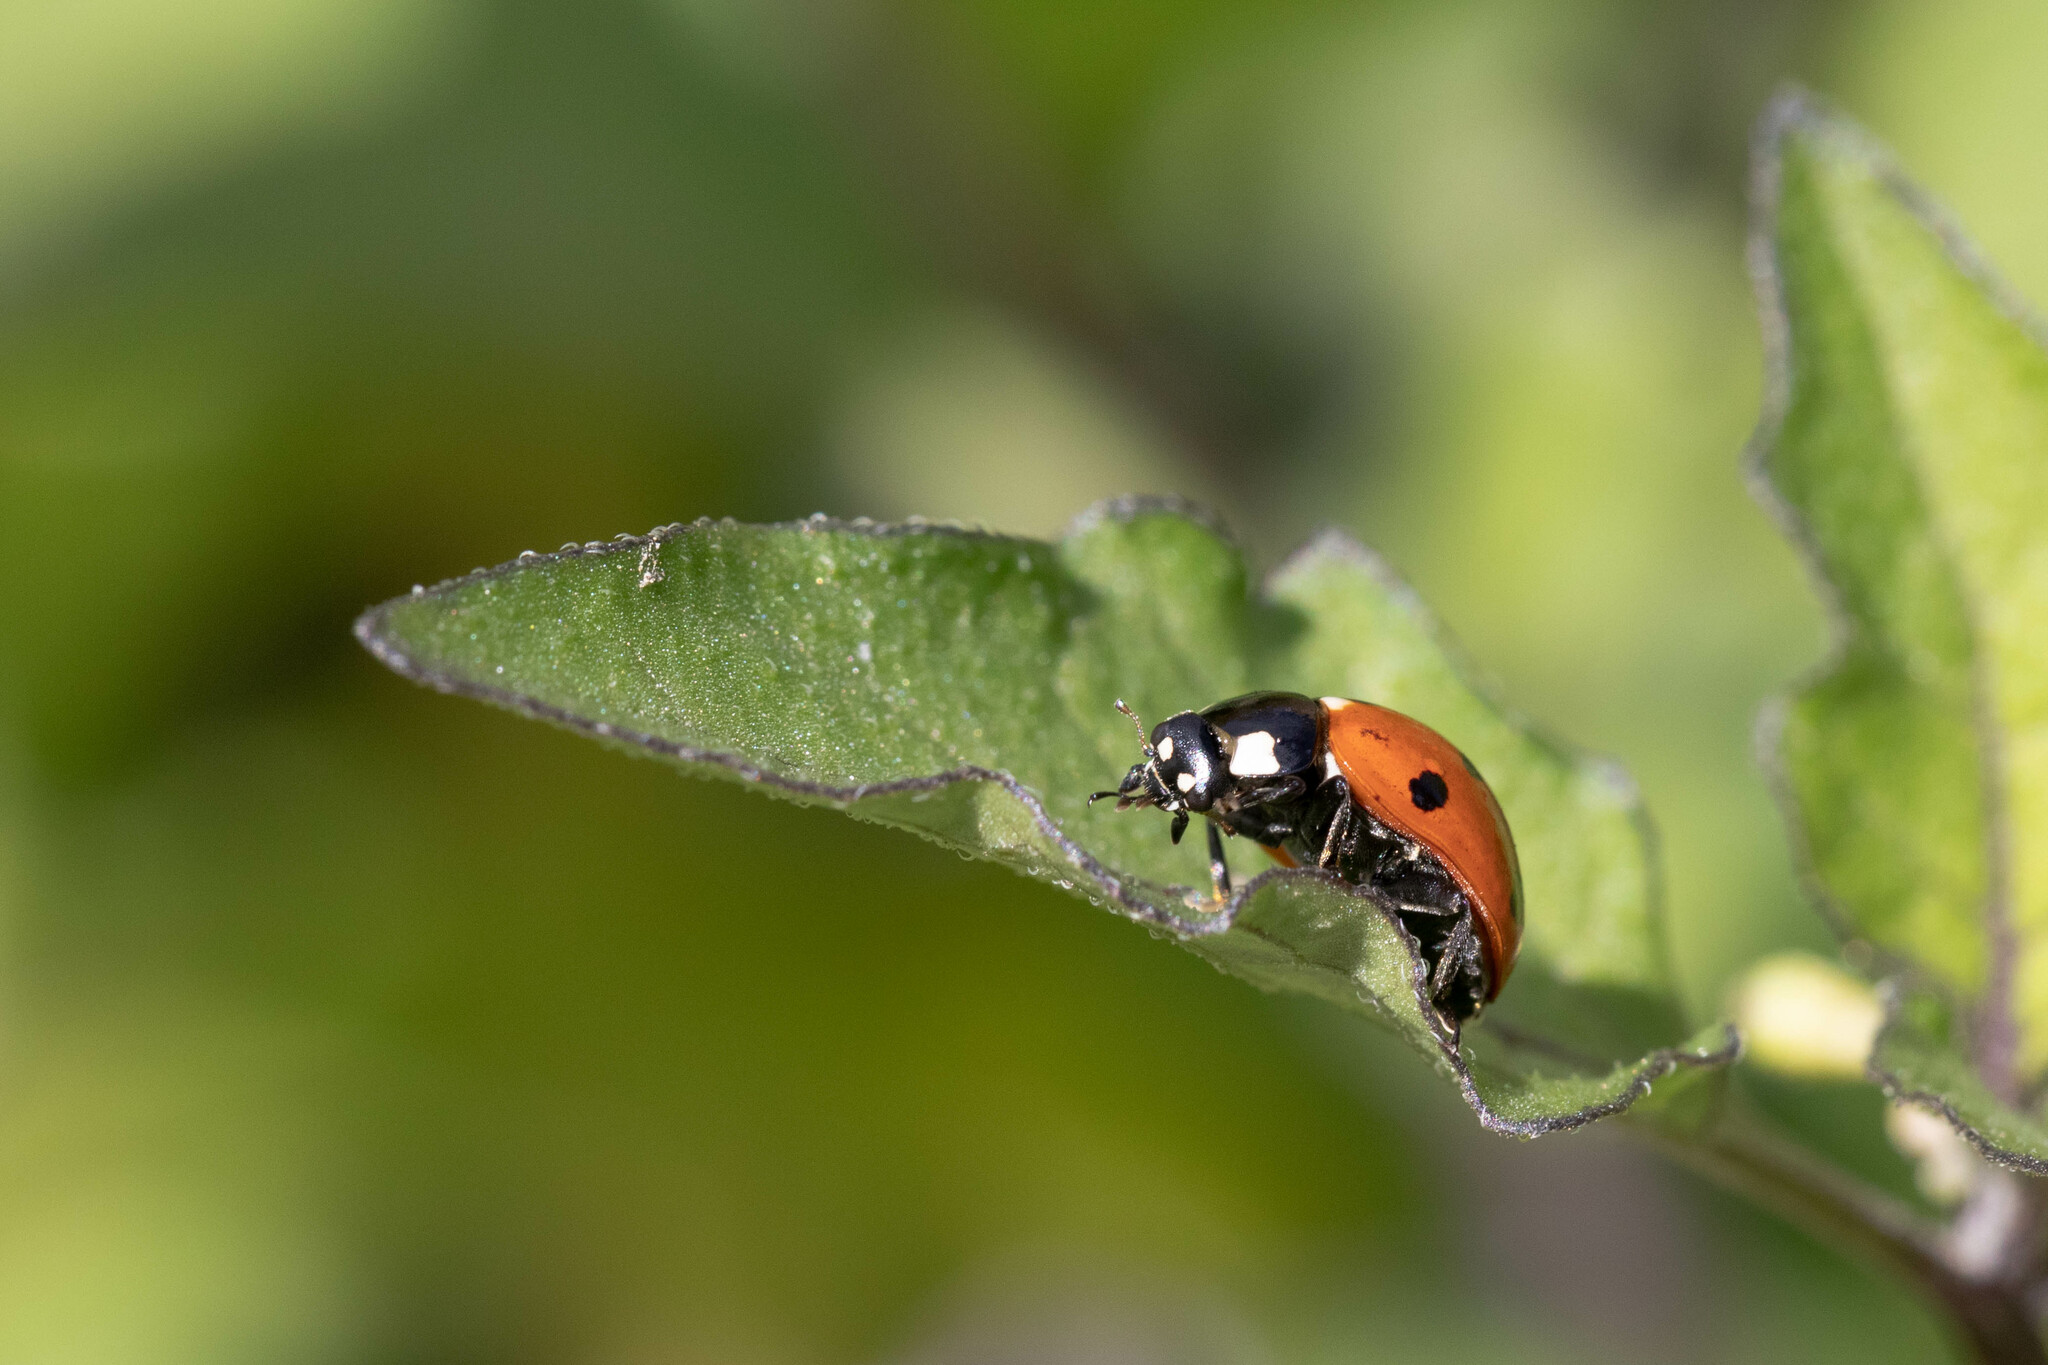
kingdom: Animalia
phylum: Arthropoda
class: Insecta
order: Coleoptera
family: Coccinellidae
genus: Coccinella
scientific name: Coccinella septempunctata
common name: Sevenspotted lady beetle
